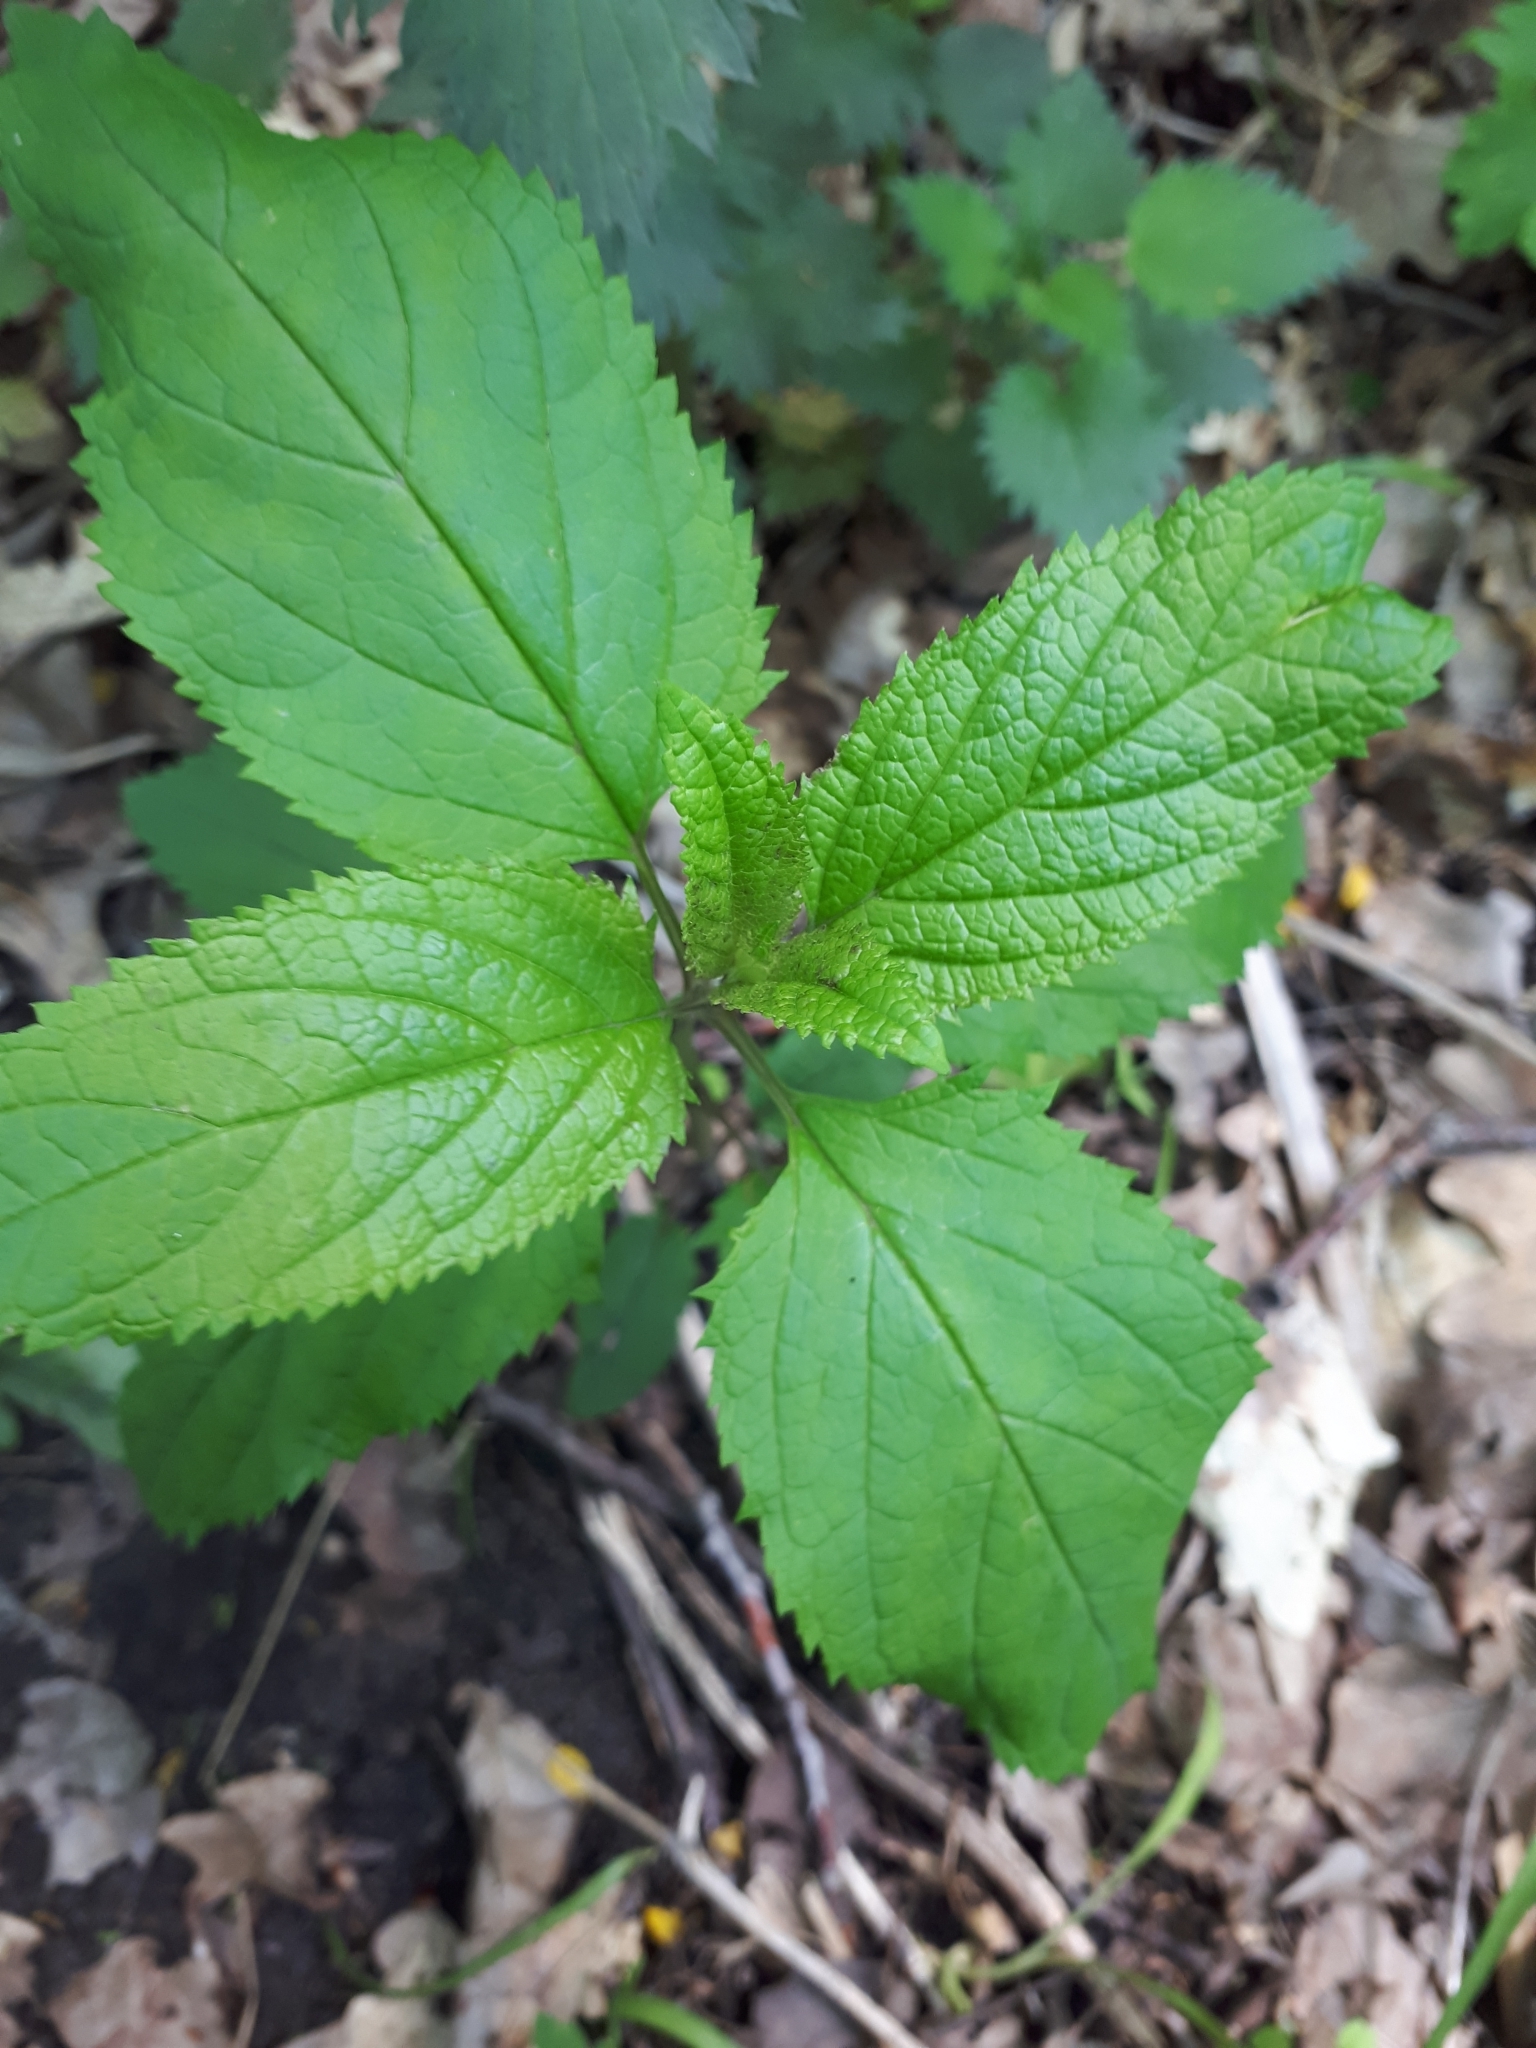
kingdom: Plantae
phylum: Tracheophyta
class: Magnoliopsida
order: Lamiales
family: Scrophulariaceae
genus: Scrophularia
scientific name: Scrophularia nodosa
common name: Common figwort
